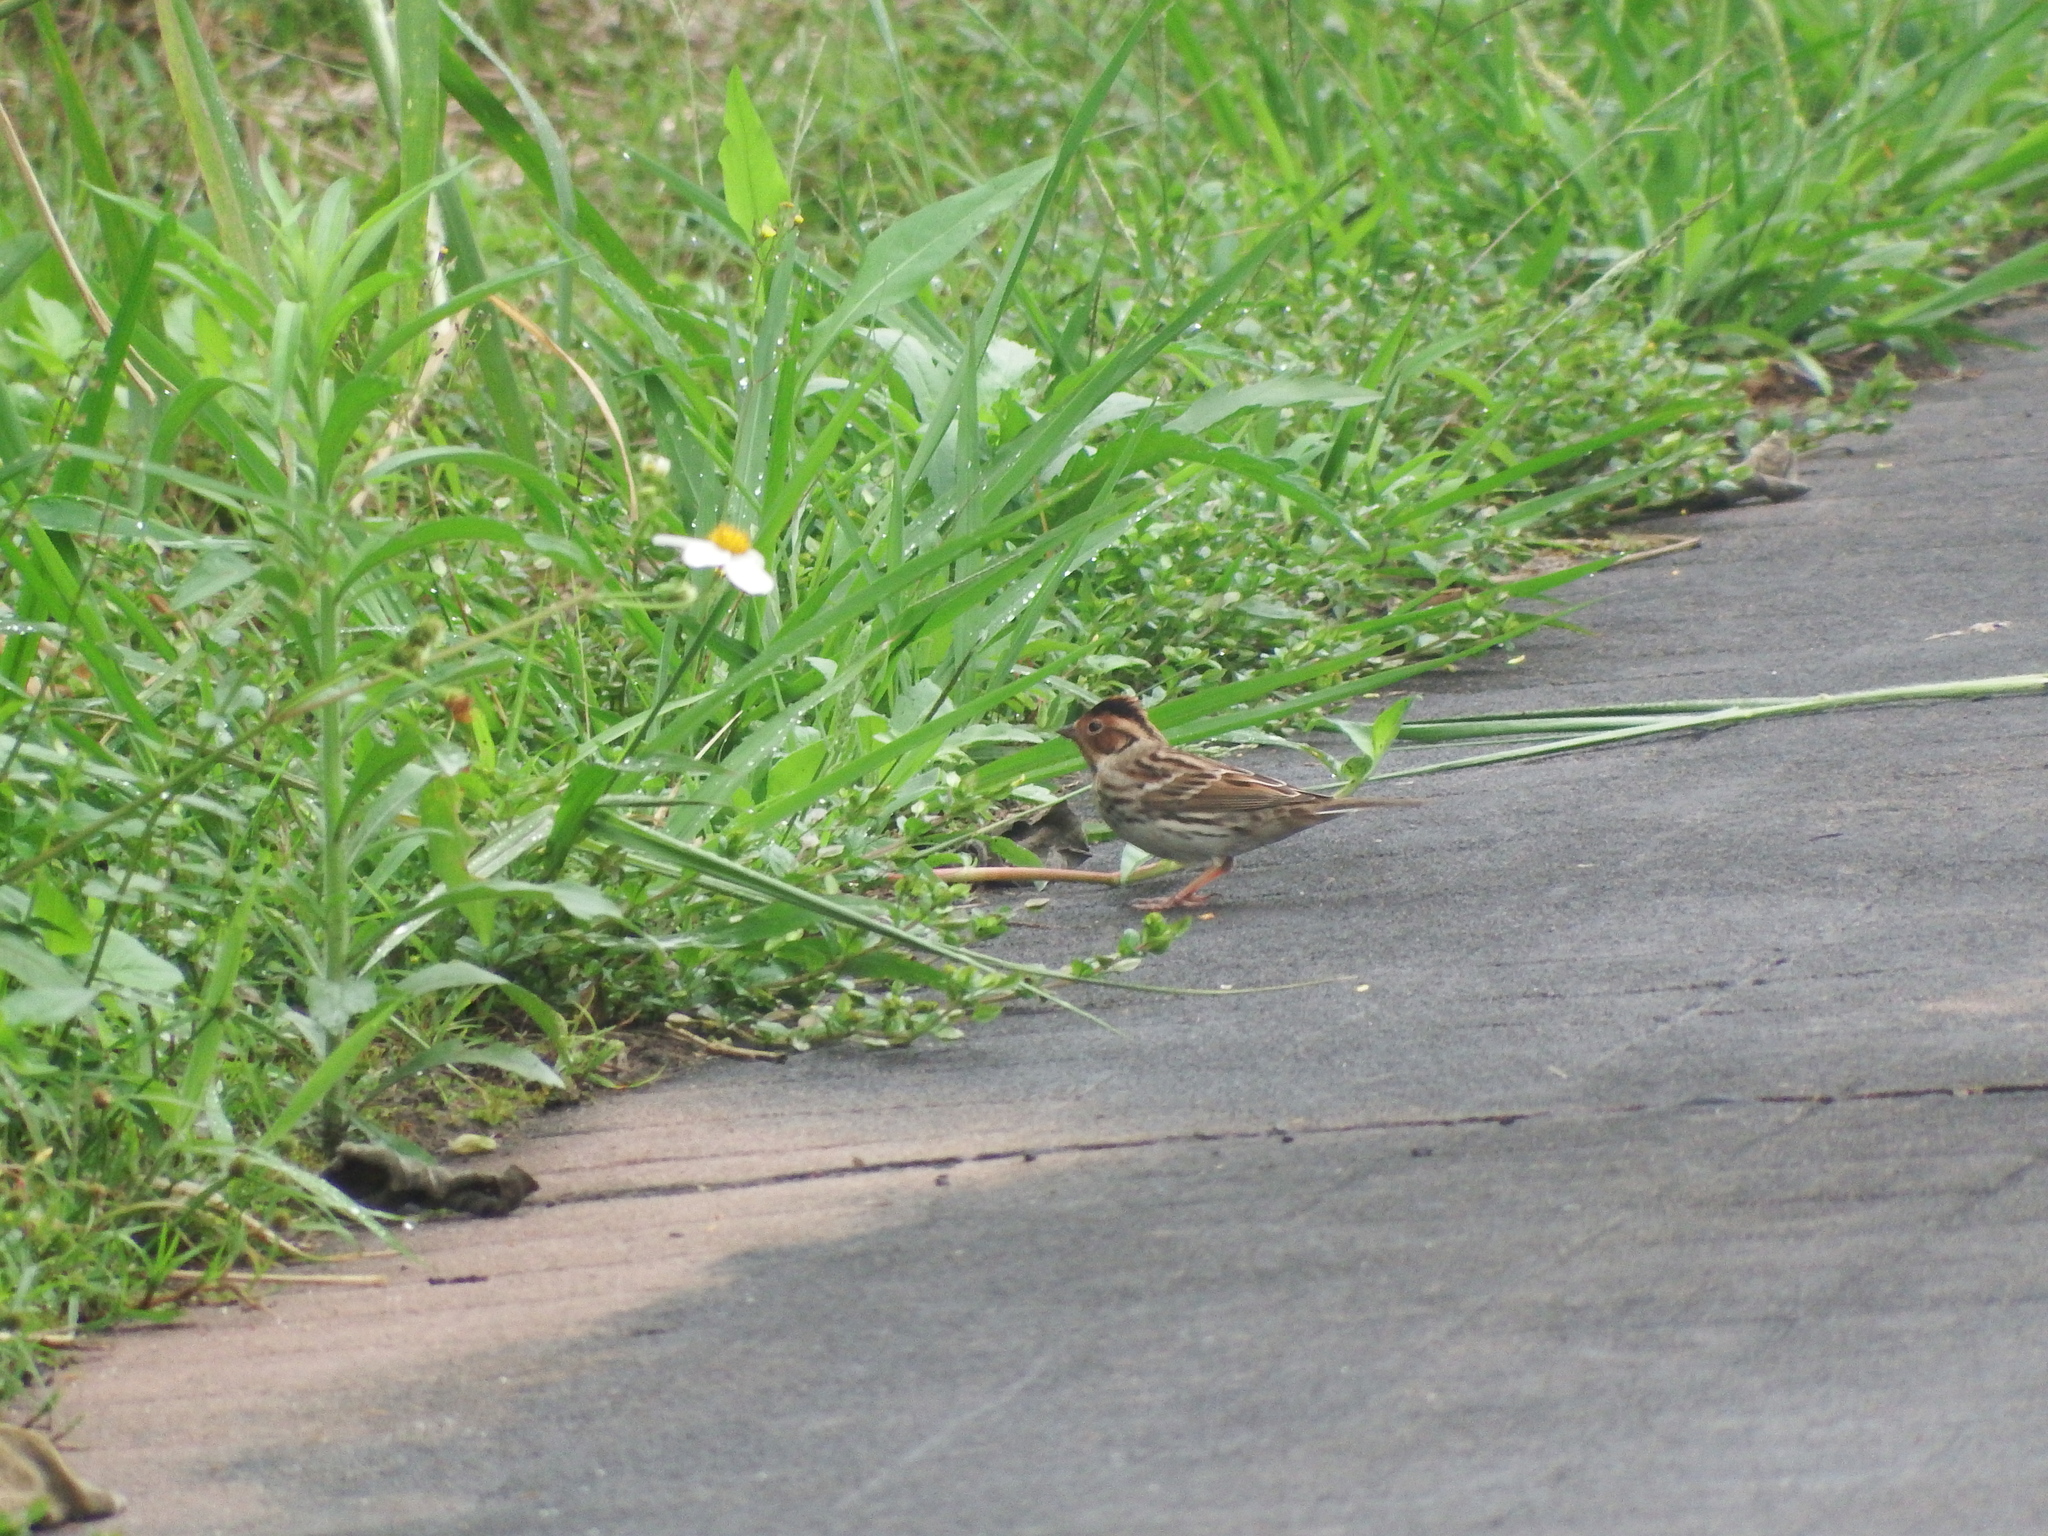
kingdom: Animalia
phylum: Chordata
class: Aves
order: Passeriformes
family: Emberizidae
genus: Emberiza
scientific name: Emberiza pusilla
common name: Little bunting
